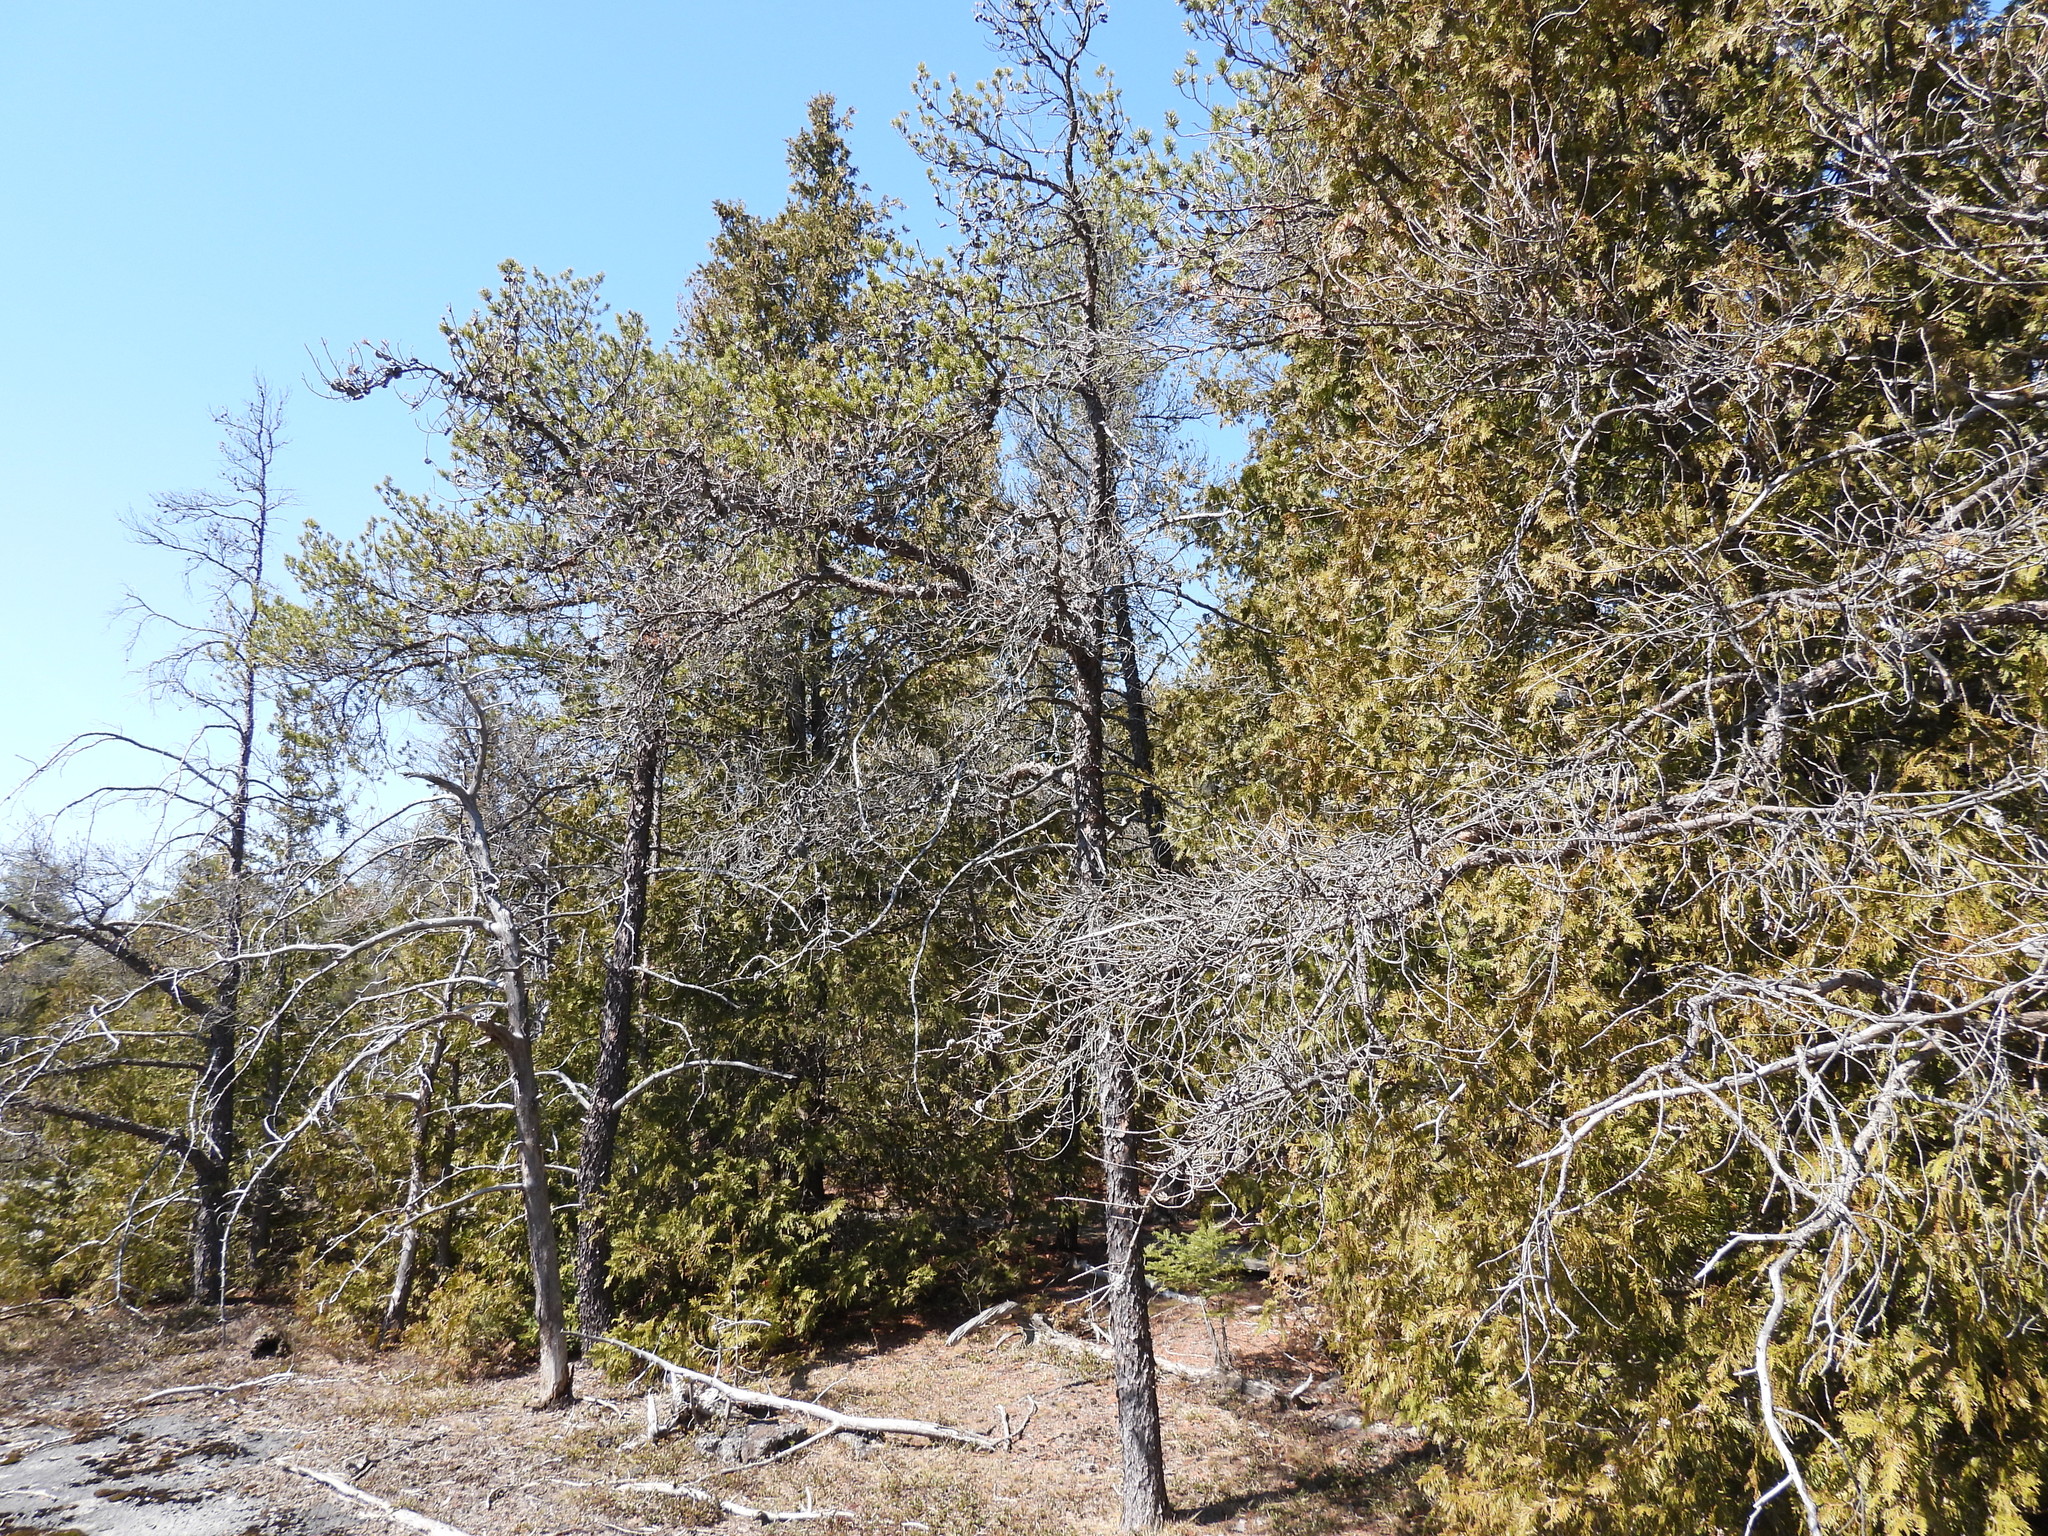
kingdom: Plantae
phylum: Tracheophyta
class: Pinopsida
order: Pinales
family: Pinaceae
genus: Pinus
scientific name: Pinus banksiana
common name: Jack pine
